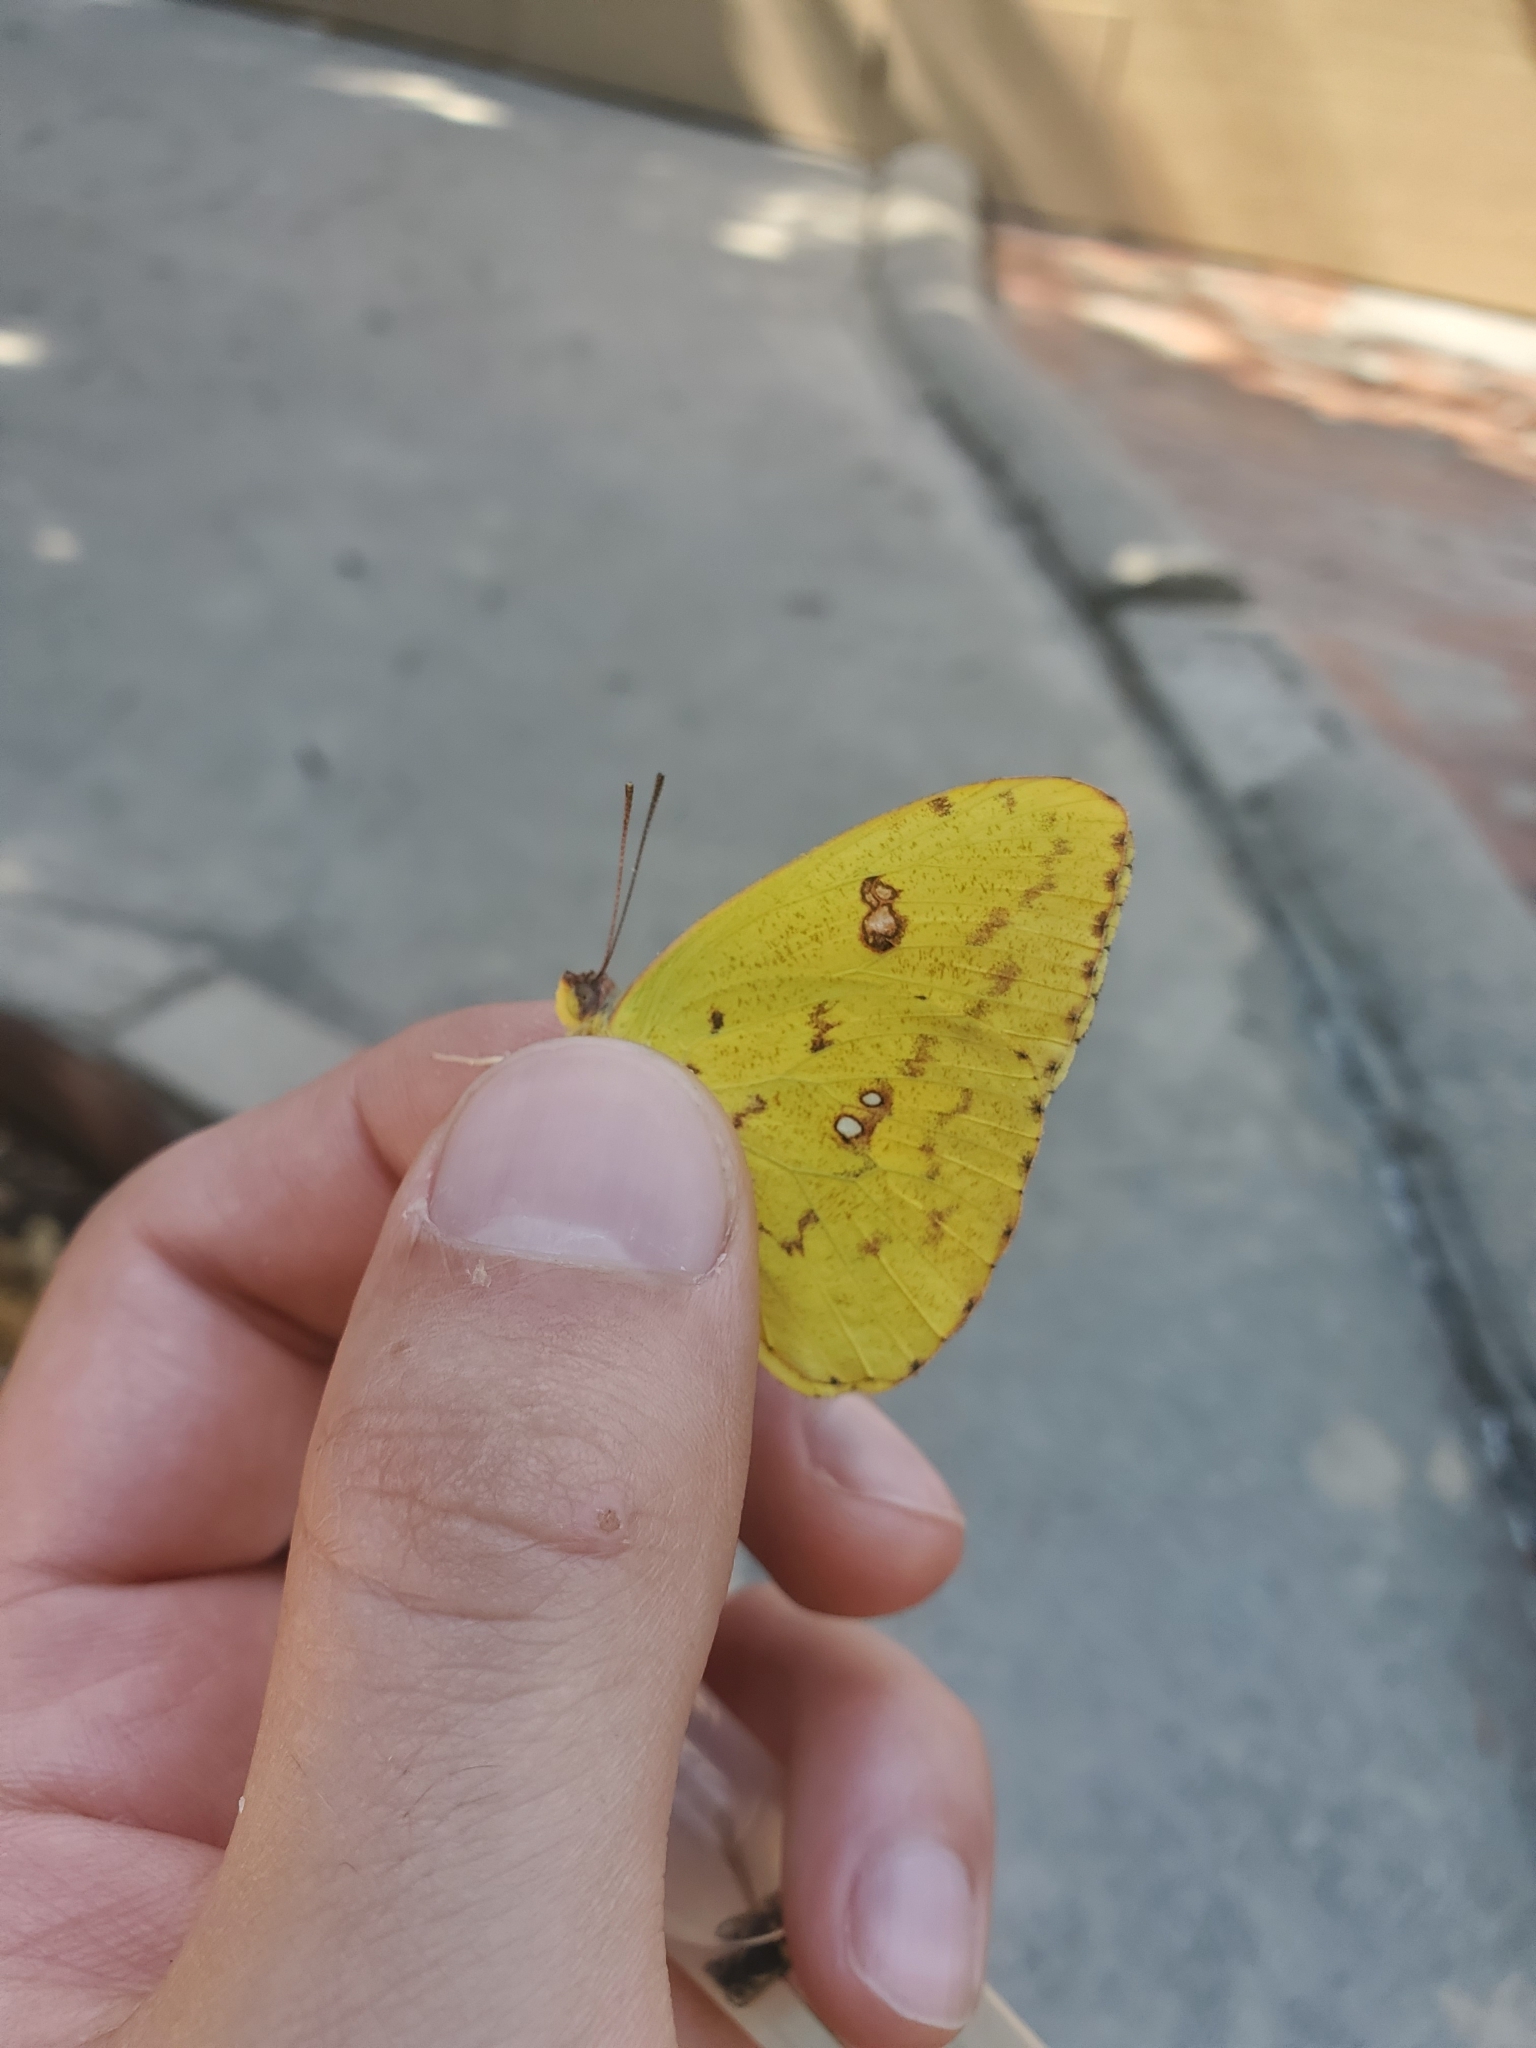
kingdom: Animalia
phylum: Arthropoda
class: Insecta
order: Lepidoptera
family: Pieridae
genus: Phoebis
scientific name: Phoebis sennae
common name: Cloudless sulphur
